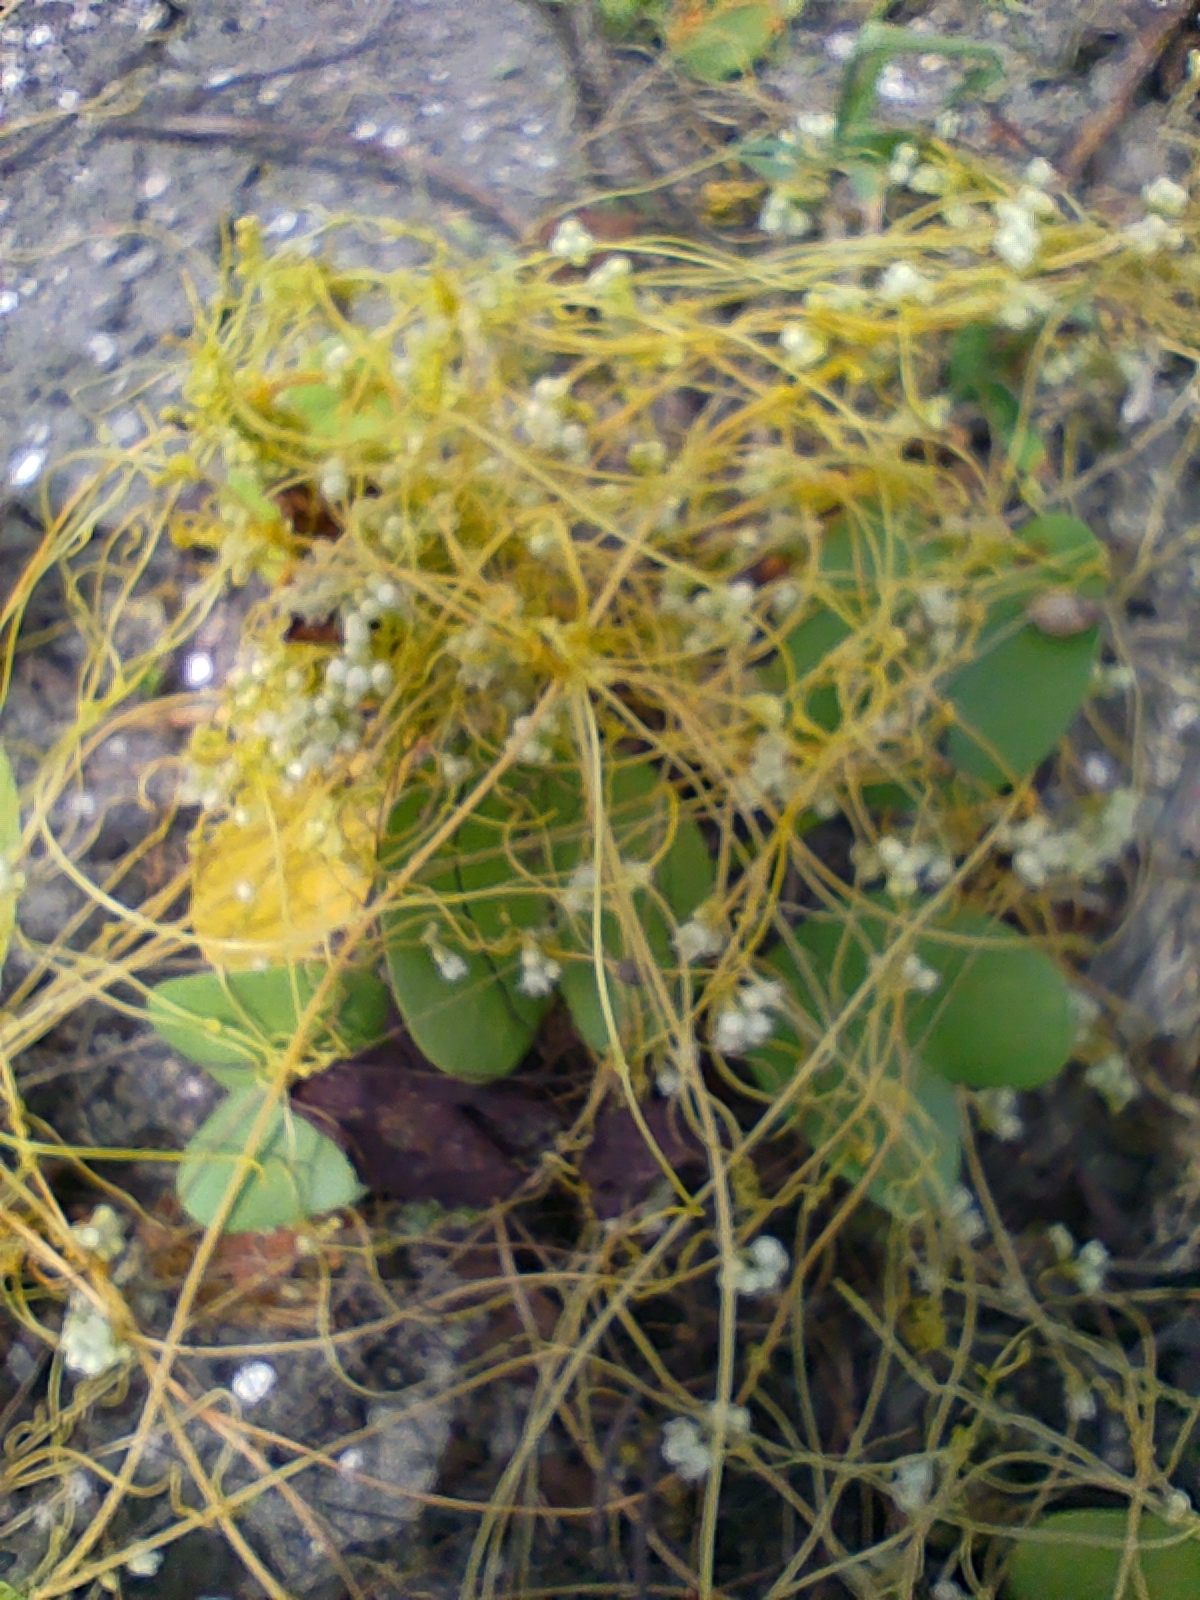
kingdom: Plantae
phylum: Tracheophyta
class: Magnoliopsida
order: Solanales
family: Convolvulaceae
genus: Cuscuta
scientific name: Cuscuta campestris
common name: Yellow dodder
